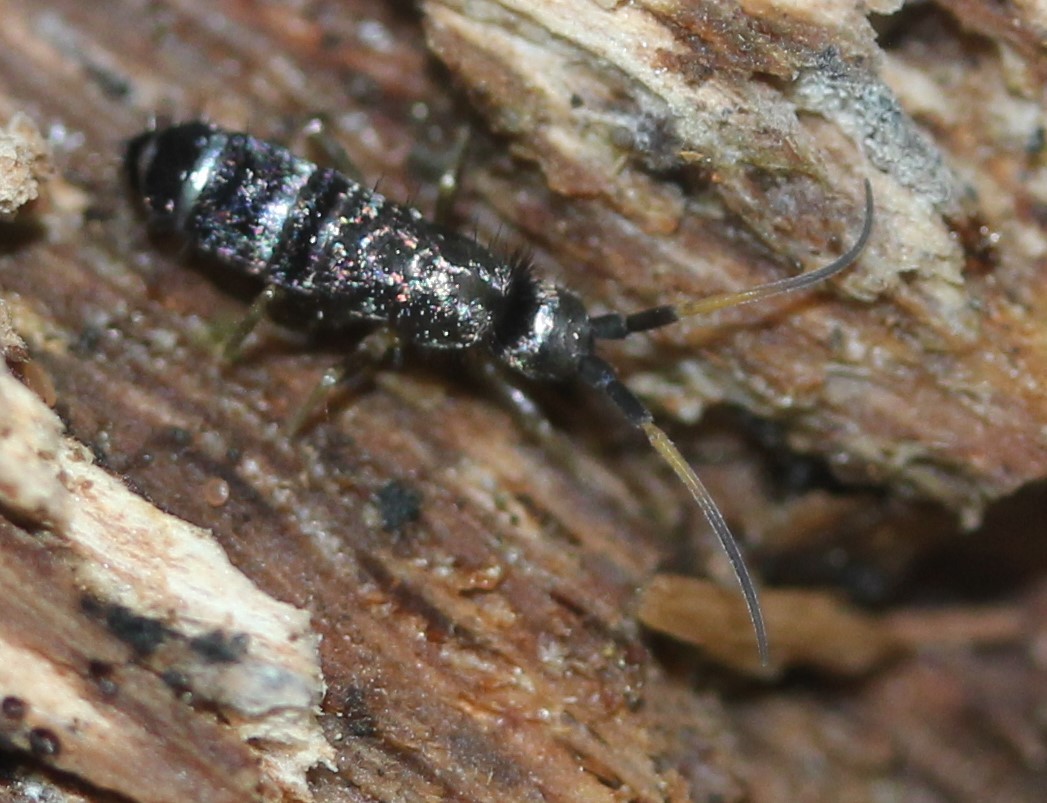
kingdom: Animalia
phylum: Arthropoda
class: Collembola
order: Entomobryomorpha
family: Tomoceridae
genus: Pogonognathellus
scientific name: Pogonognathellus nigritus
